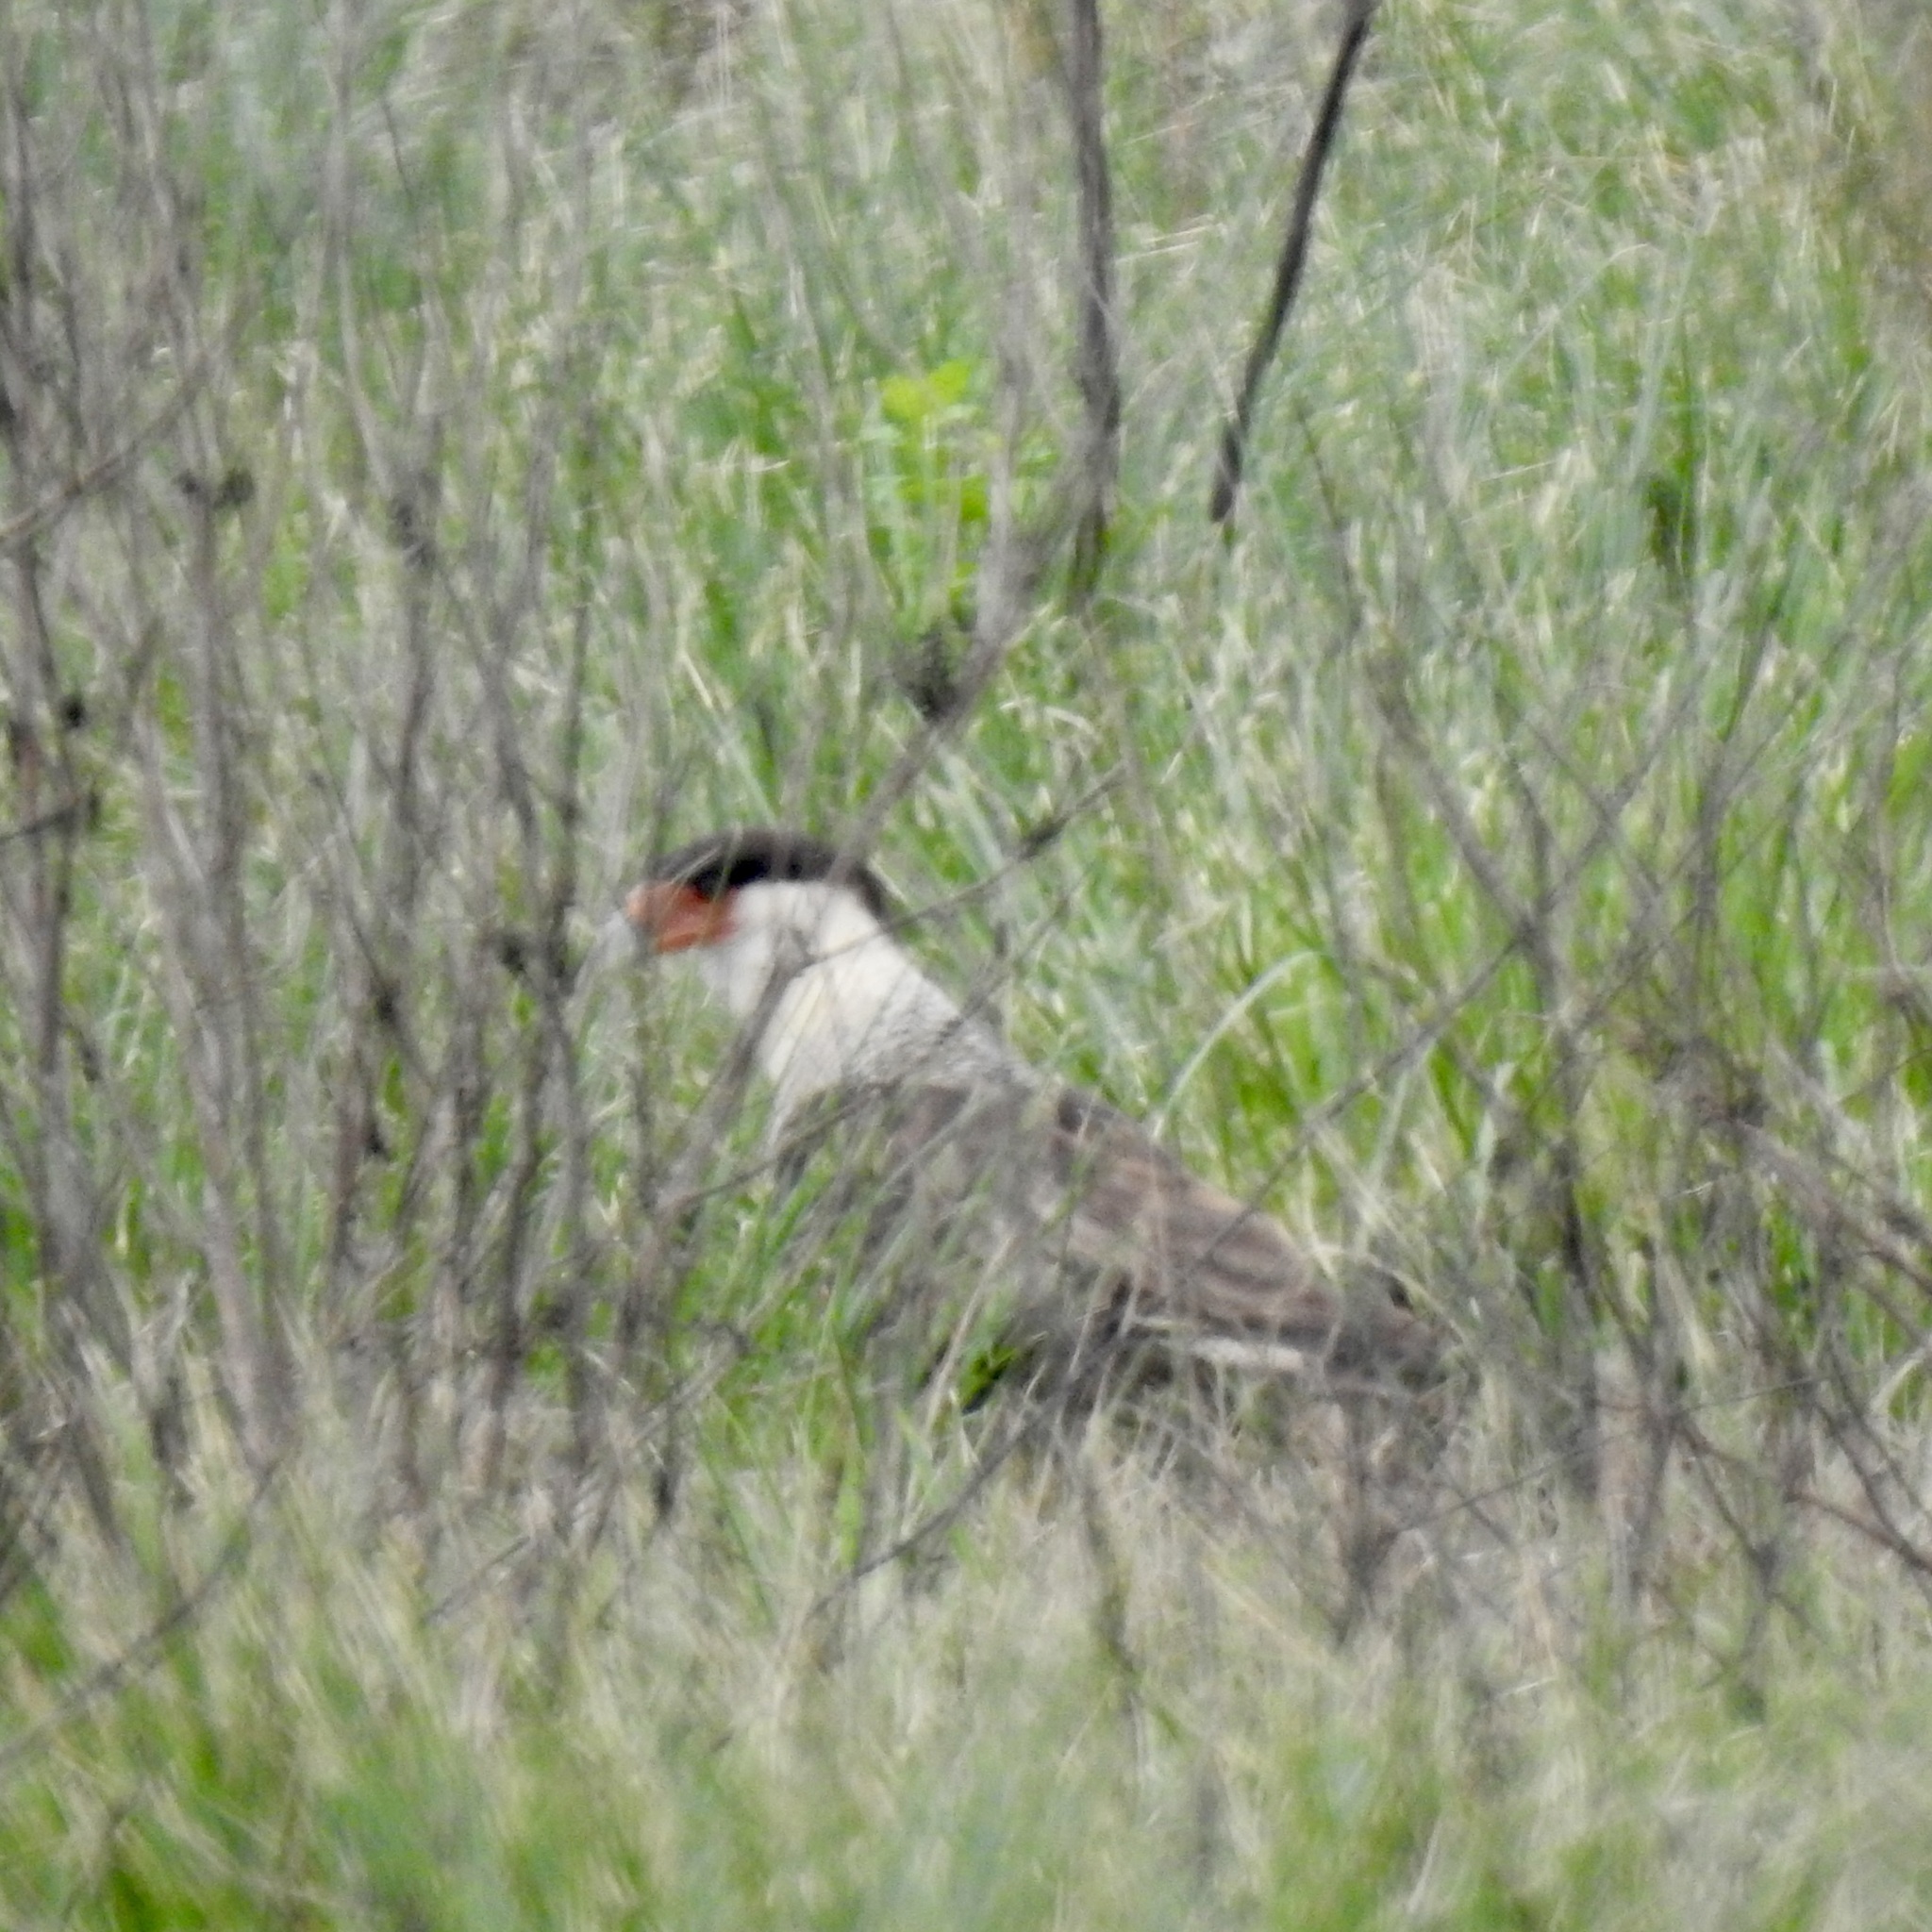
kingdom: Animalia
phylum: Chordata
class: Aves
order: Falconiformes
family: Falconidae
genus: Caracara
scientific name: Caracara plancus
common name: Southern caracara
